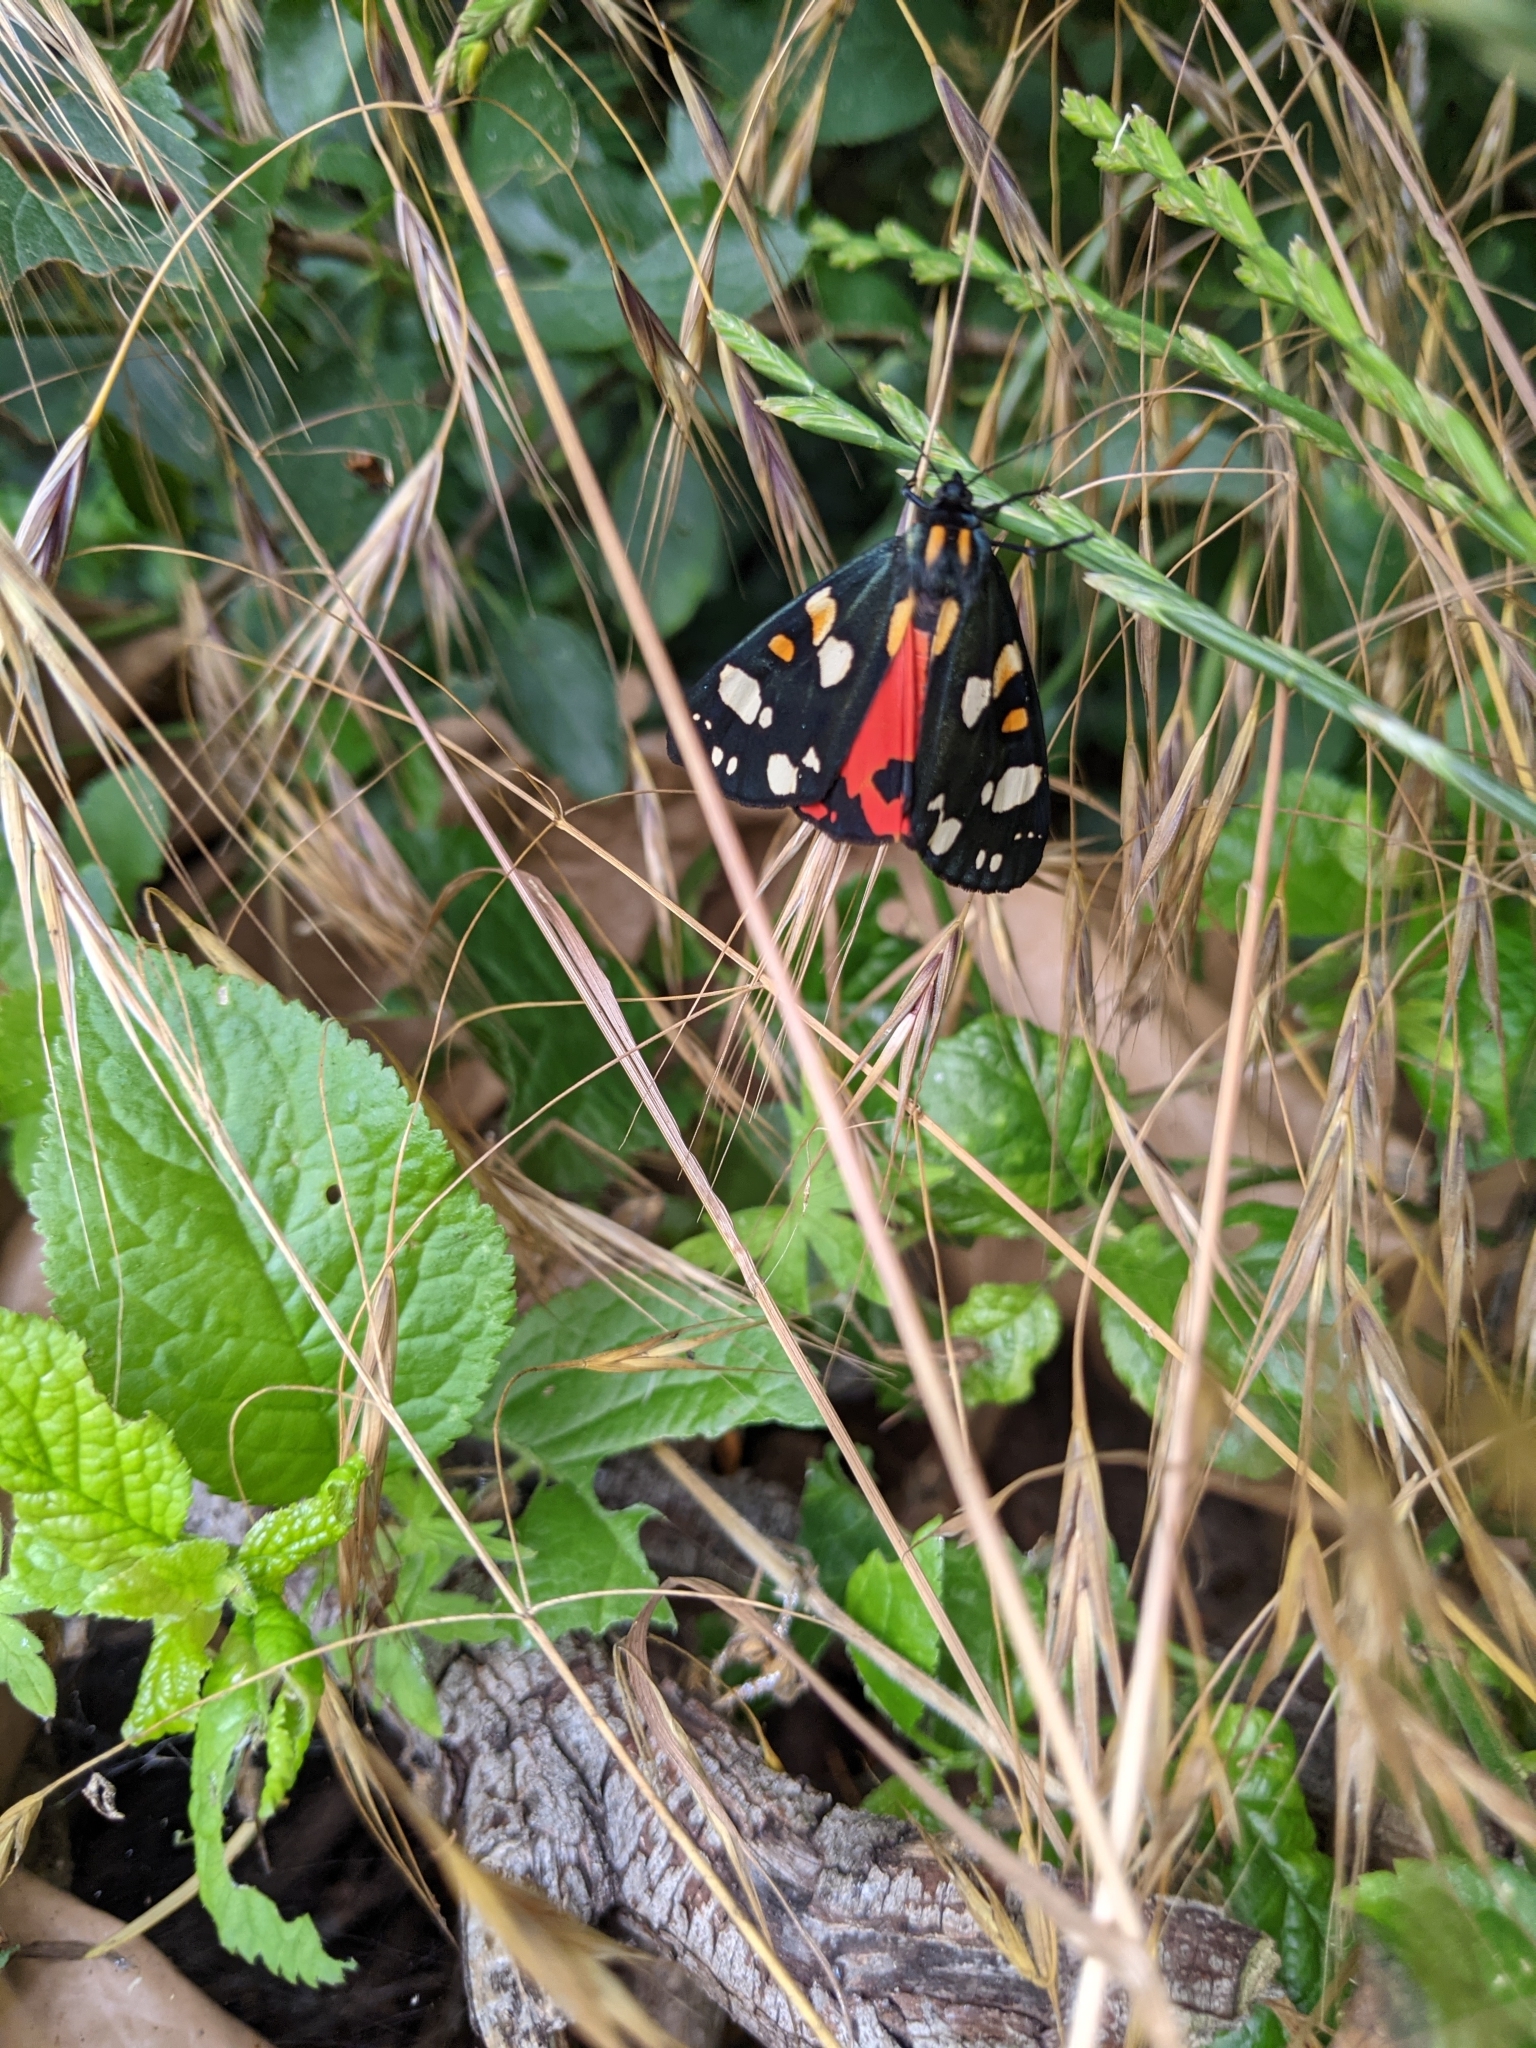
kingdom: Animalia
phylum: Arthropoda
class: Insecta
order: Lepidoptera
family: Erebidae
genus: Callimorpha
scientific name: Callimorpha dominula
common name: Scarlet tiger
